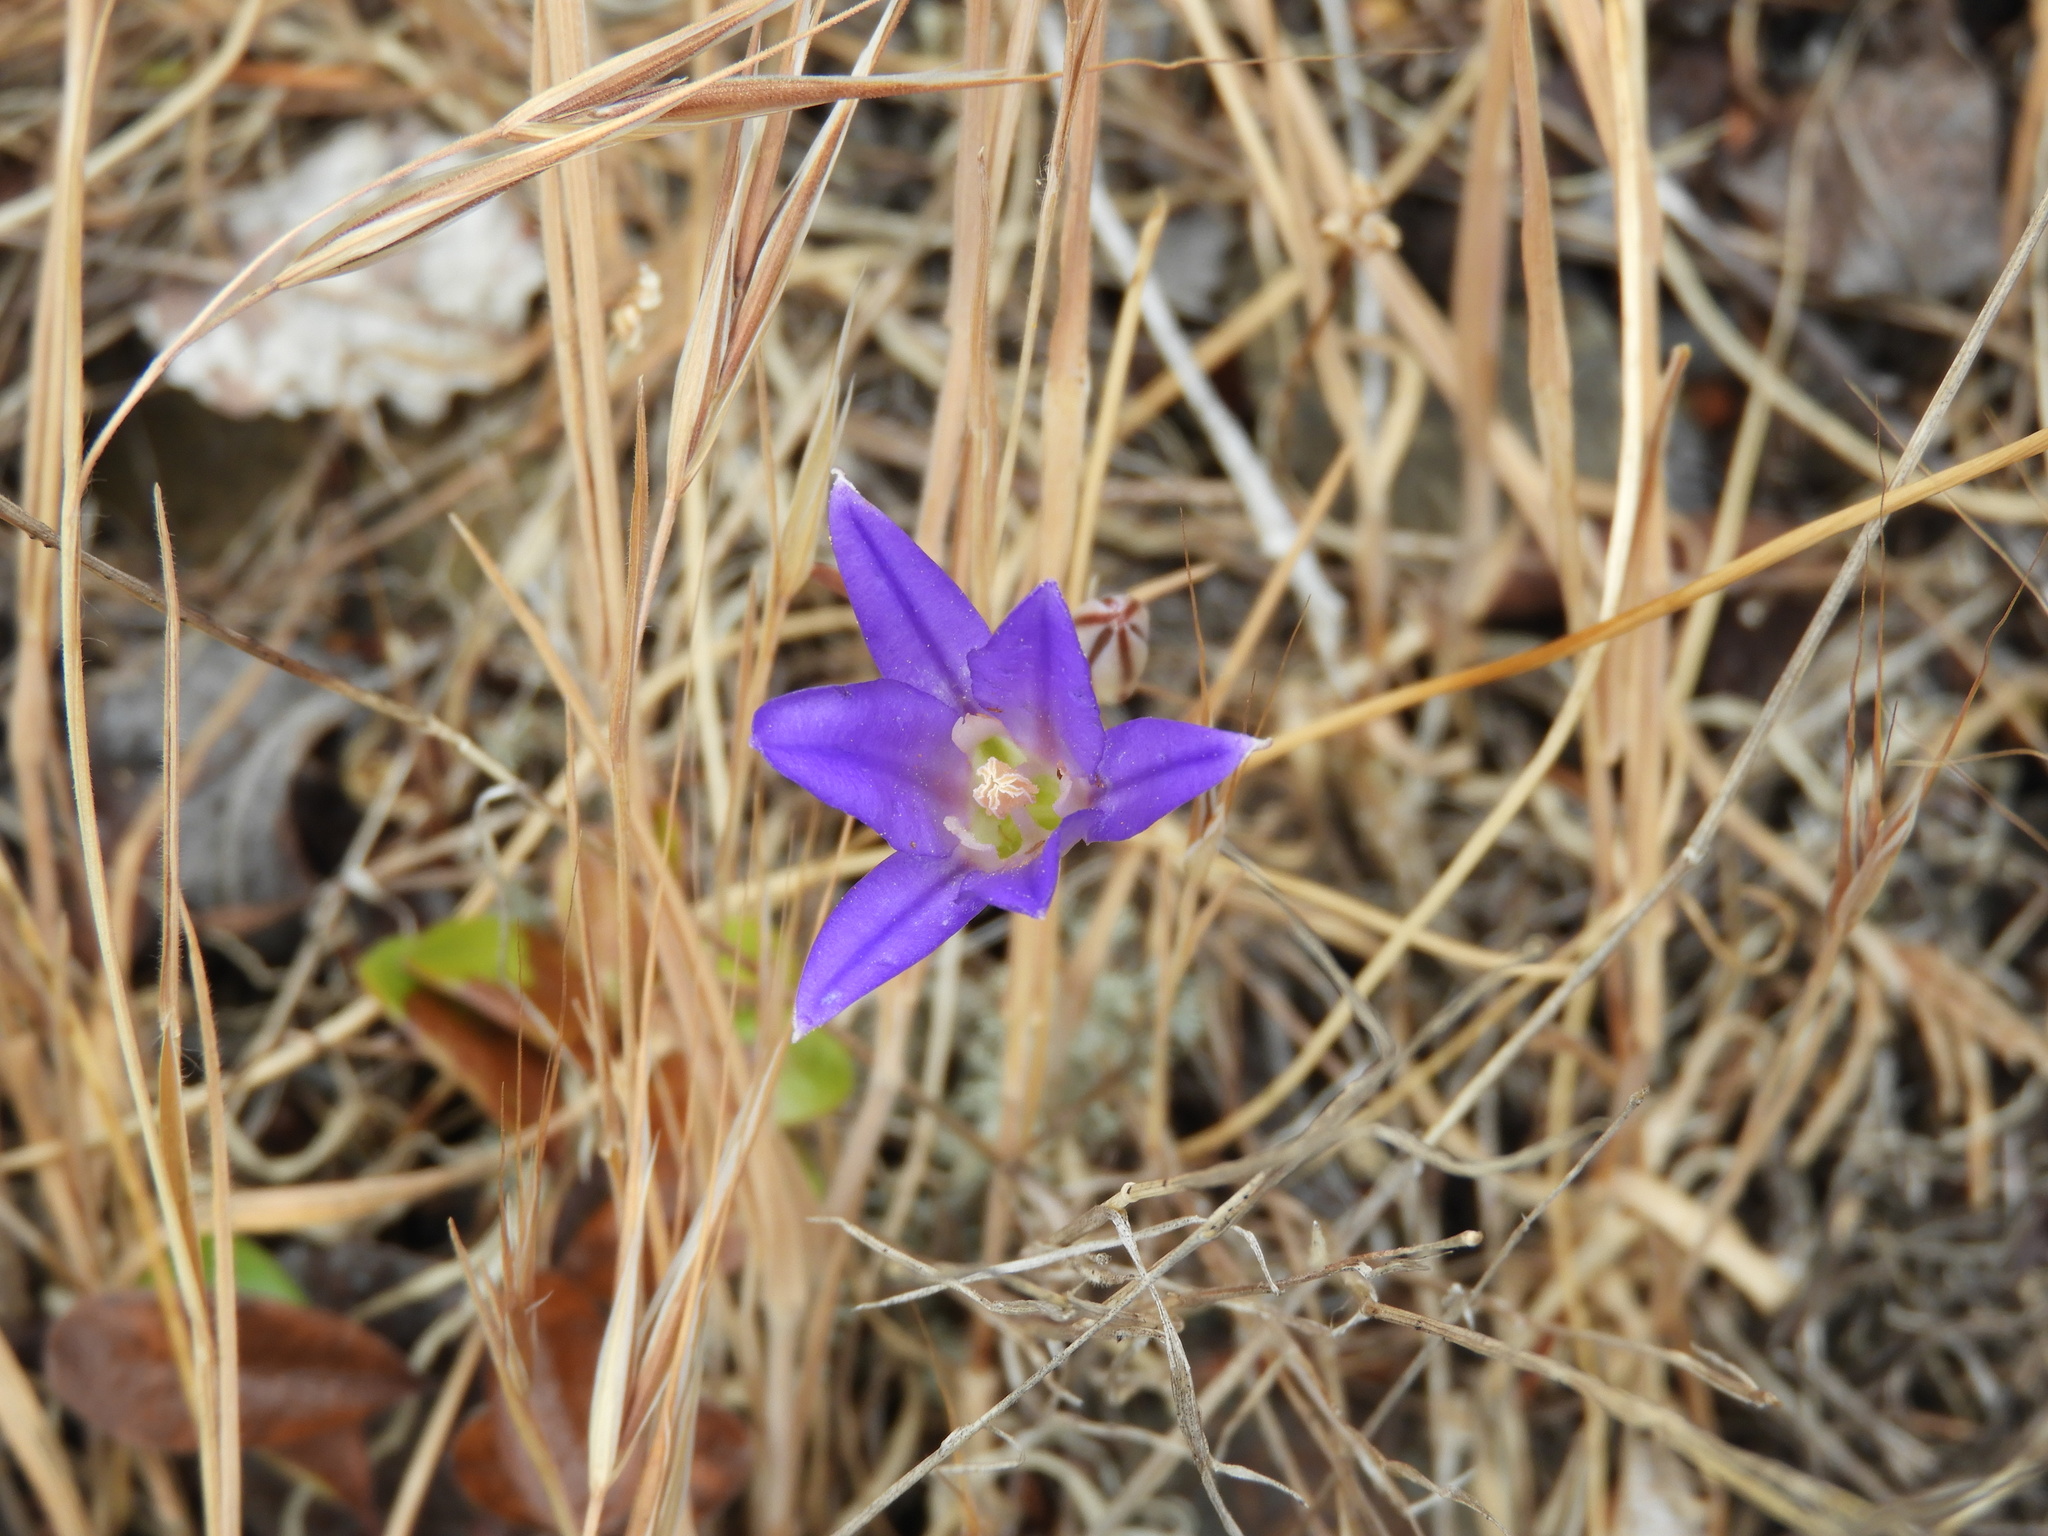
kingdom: Plantae
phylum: Tracheophyta
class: Liliopsida
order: Asparagales
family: Asparagaceae
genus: Brodiaea
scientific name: Brodiaea coronaria
